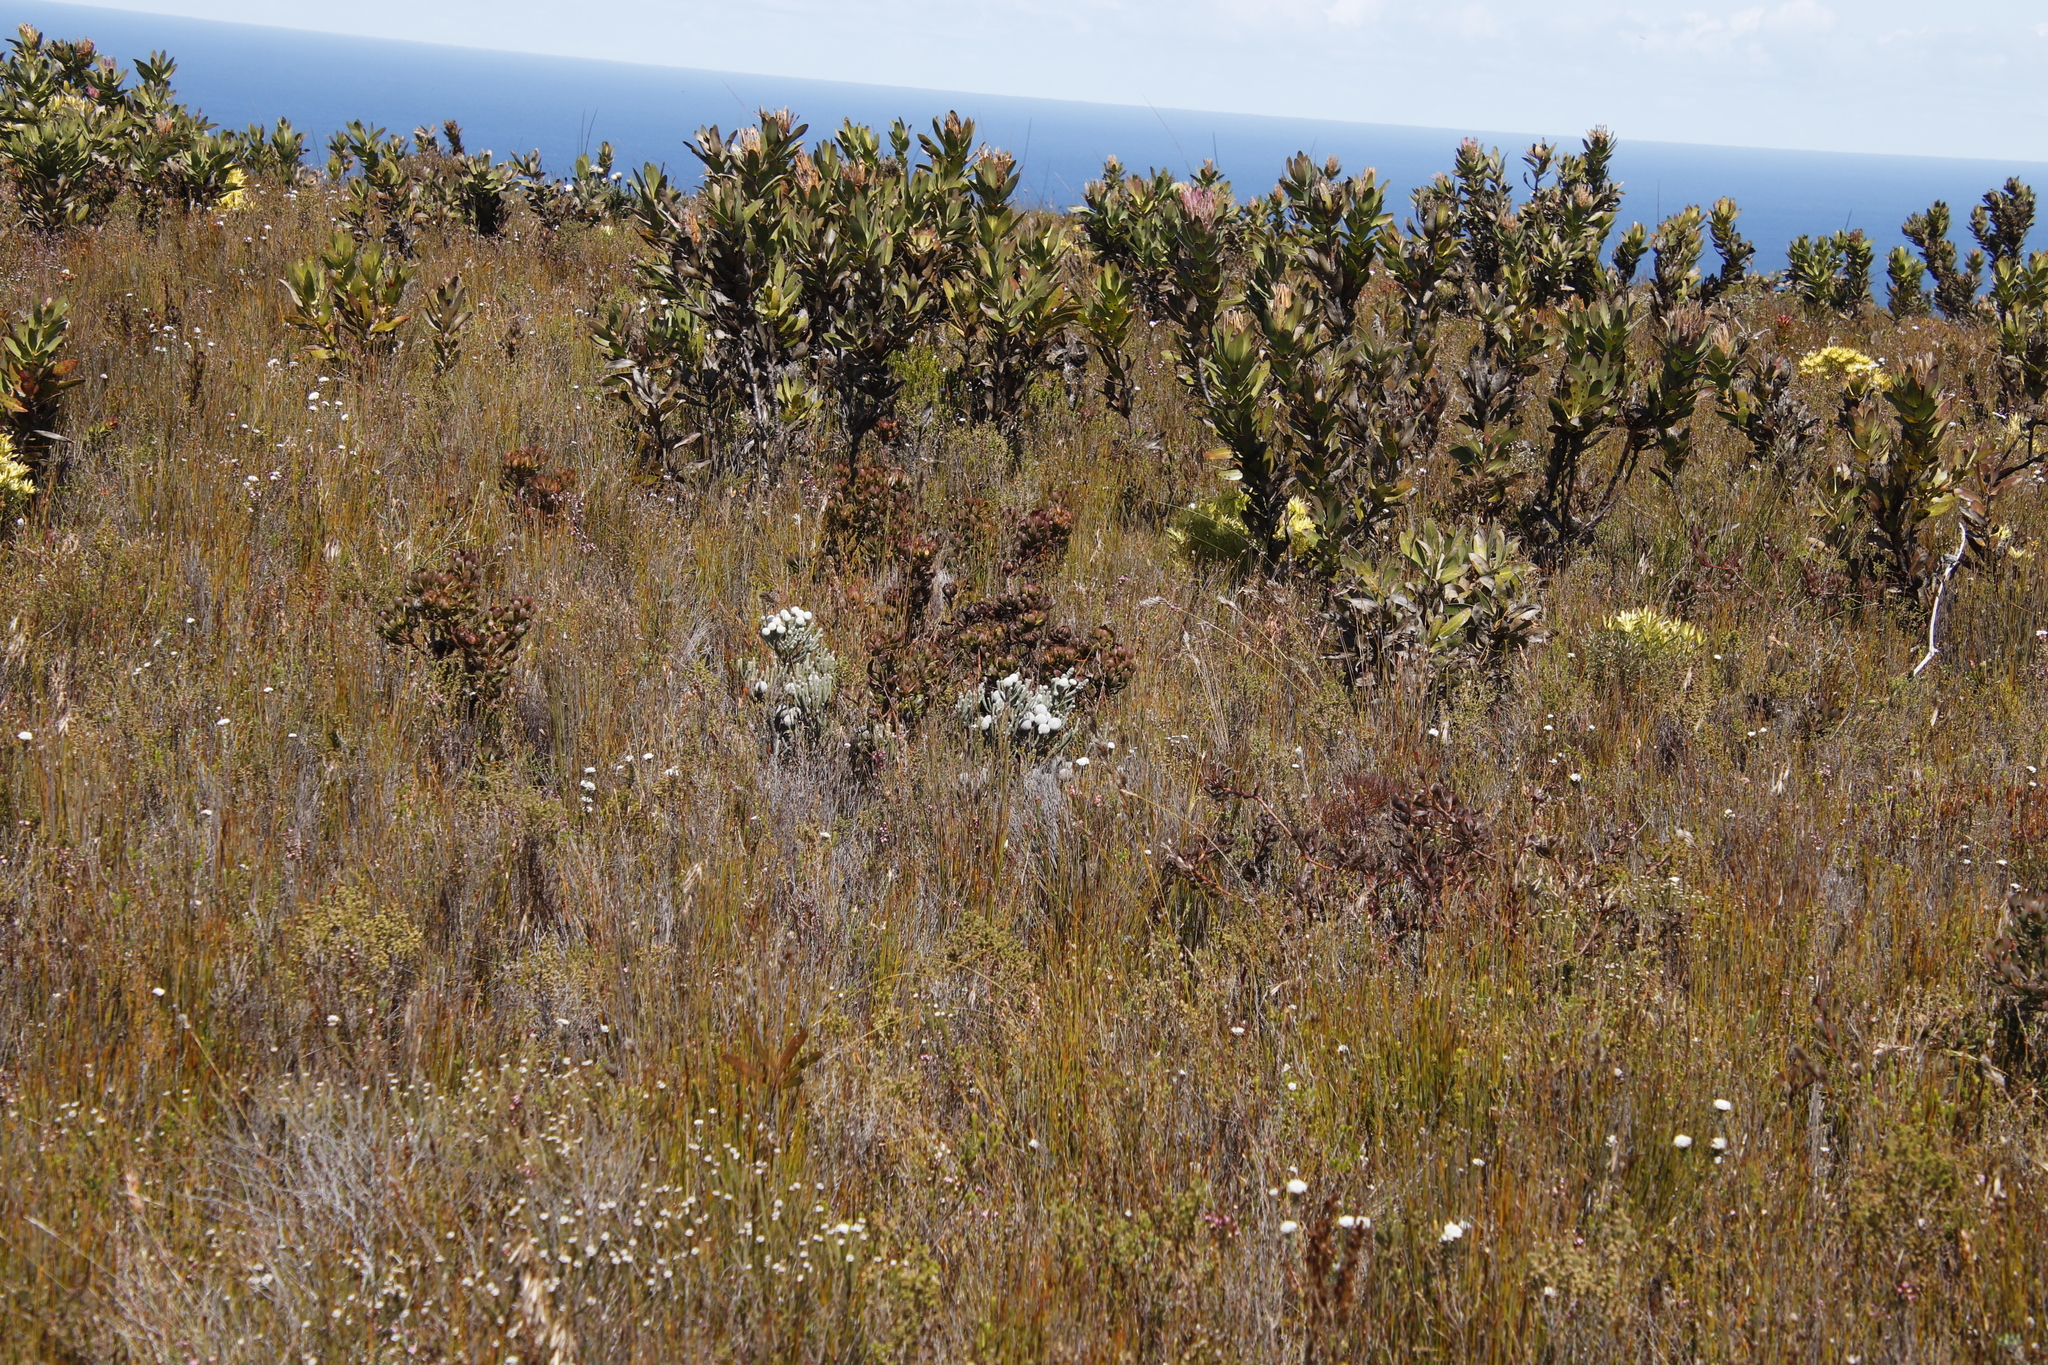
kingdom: Plantae
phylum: Tracheophyta
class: Magnoliopsida
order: Proteales
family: Proteaceae
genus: Aulax
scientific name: Aulax umbellata
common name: Broad-leaf featherbush
